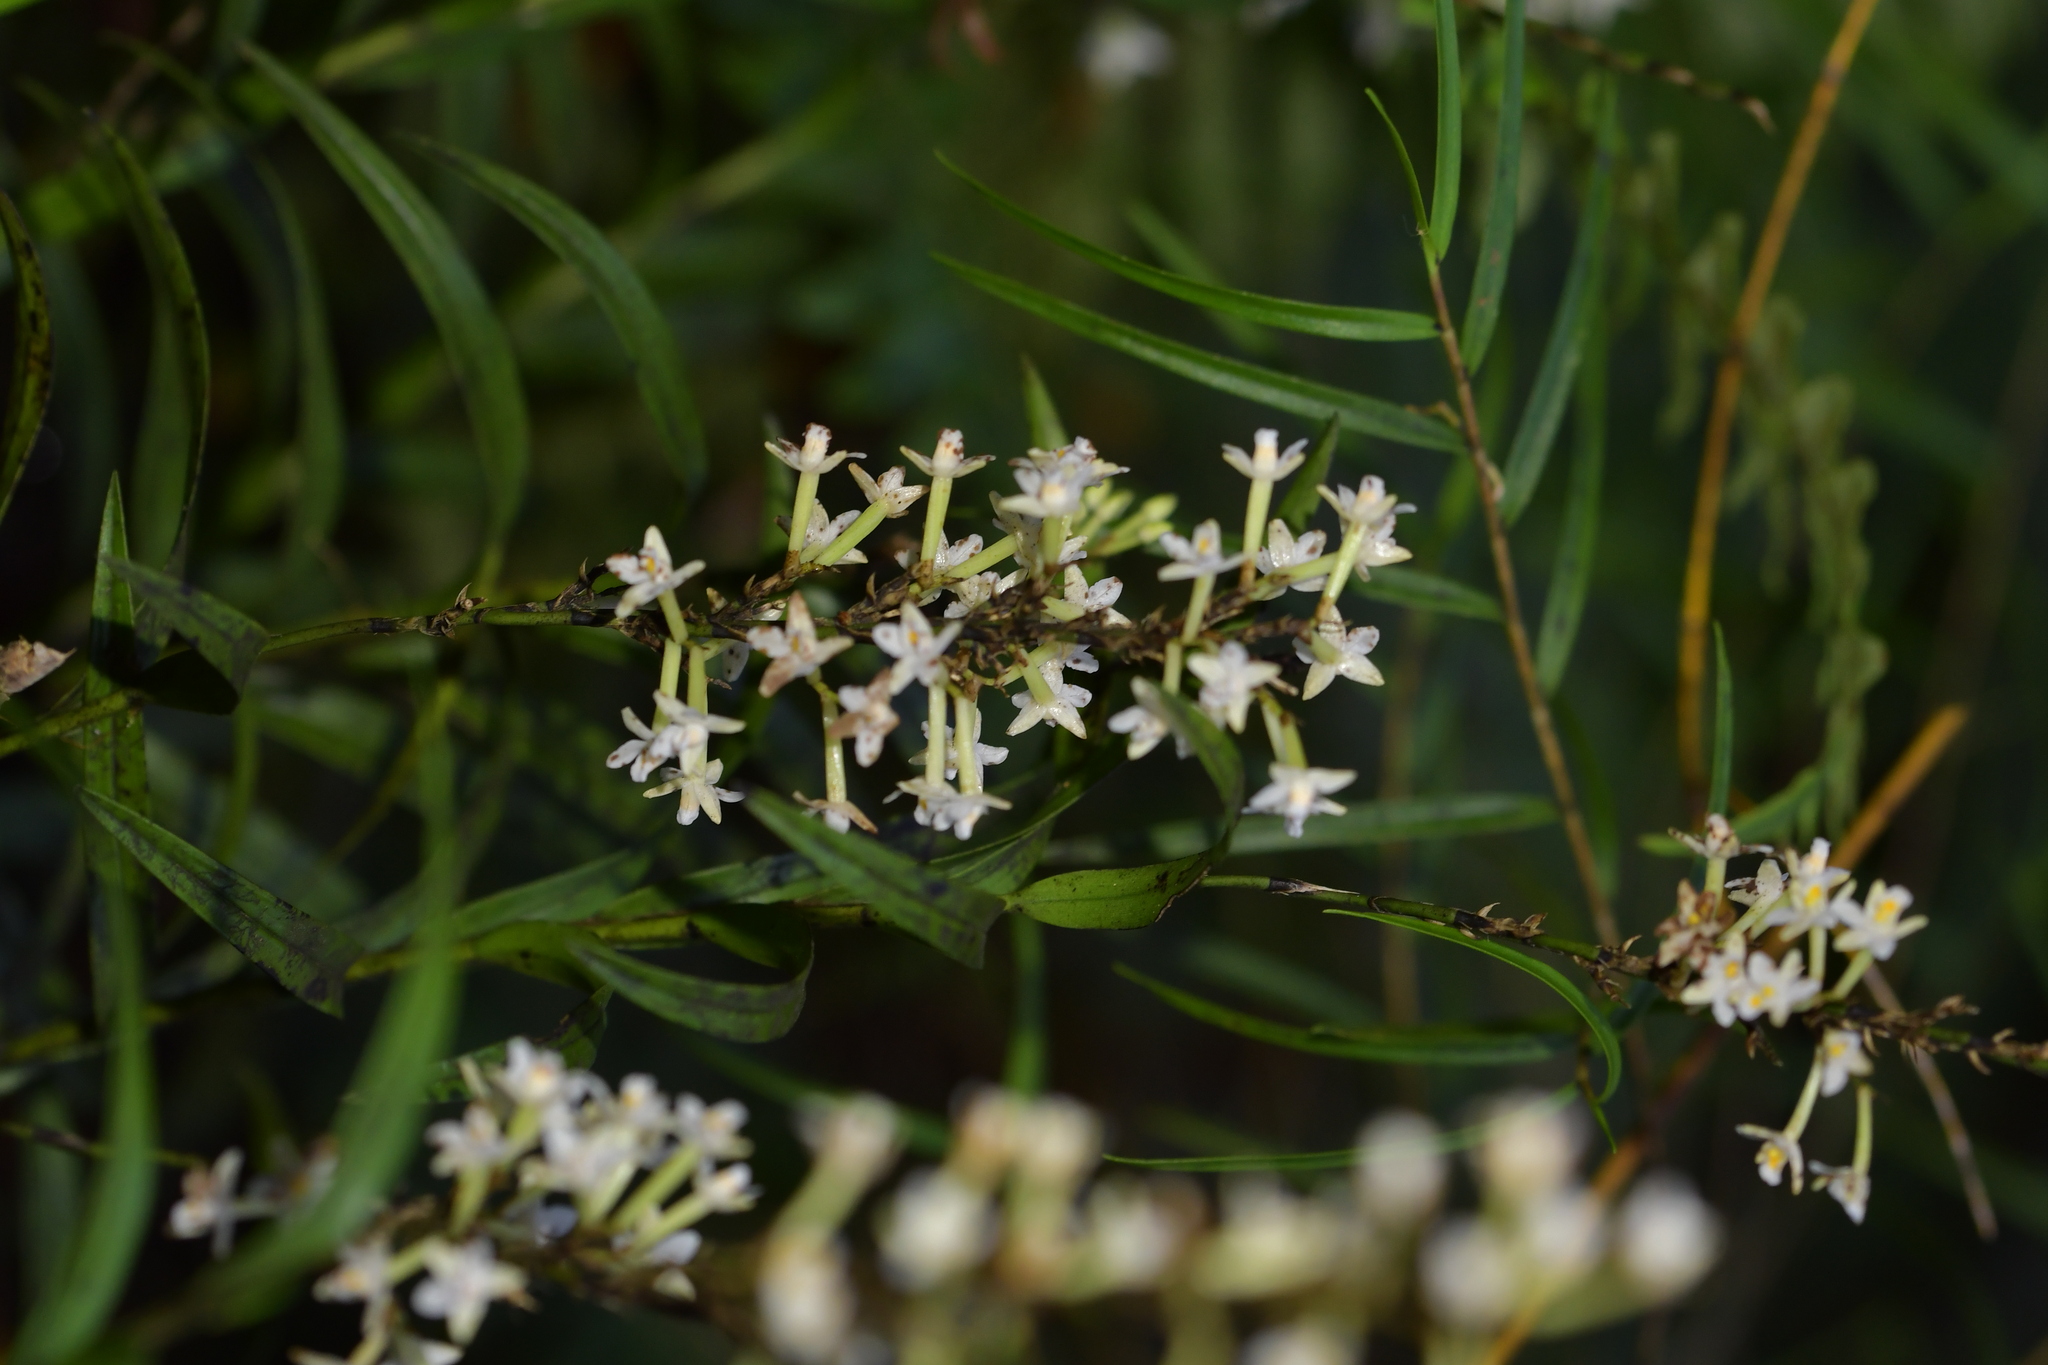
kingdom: Plantae
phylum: Tracheophyta
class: Liliopsida
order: Asparagales
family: Orchidaceae
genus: Earina
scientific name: Earina autumnalis
